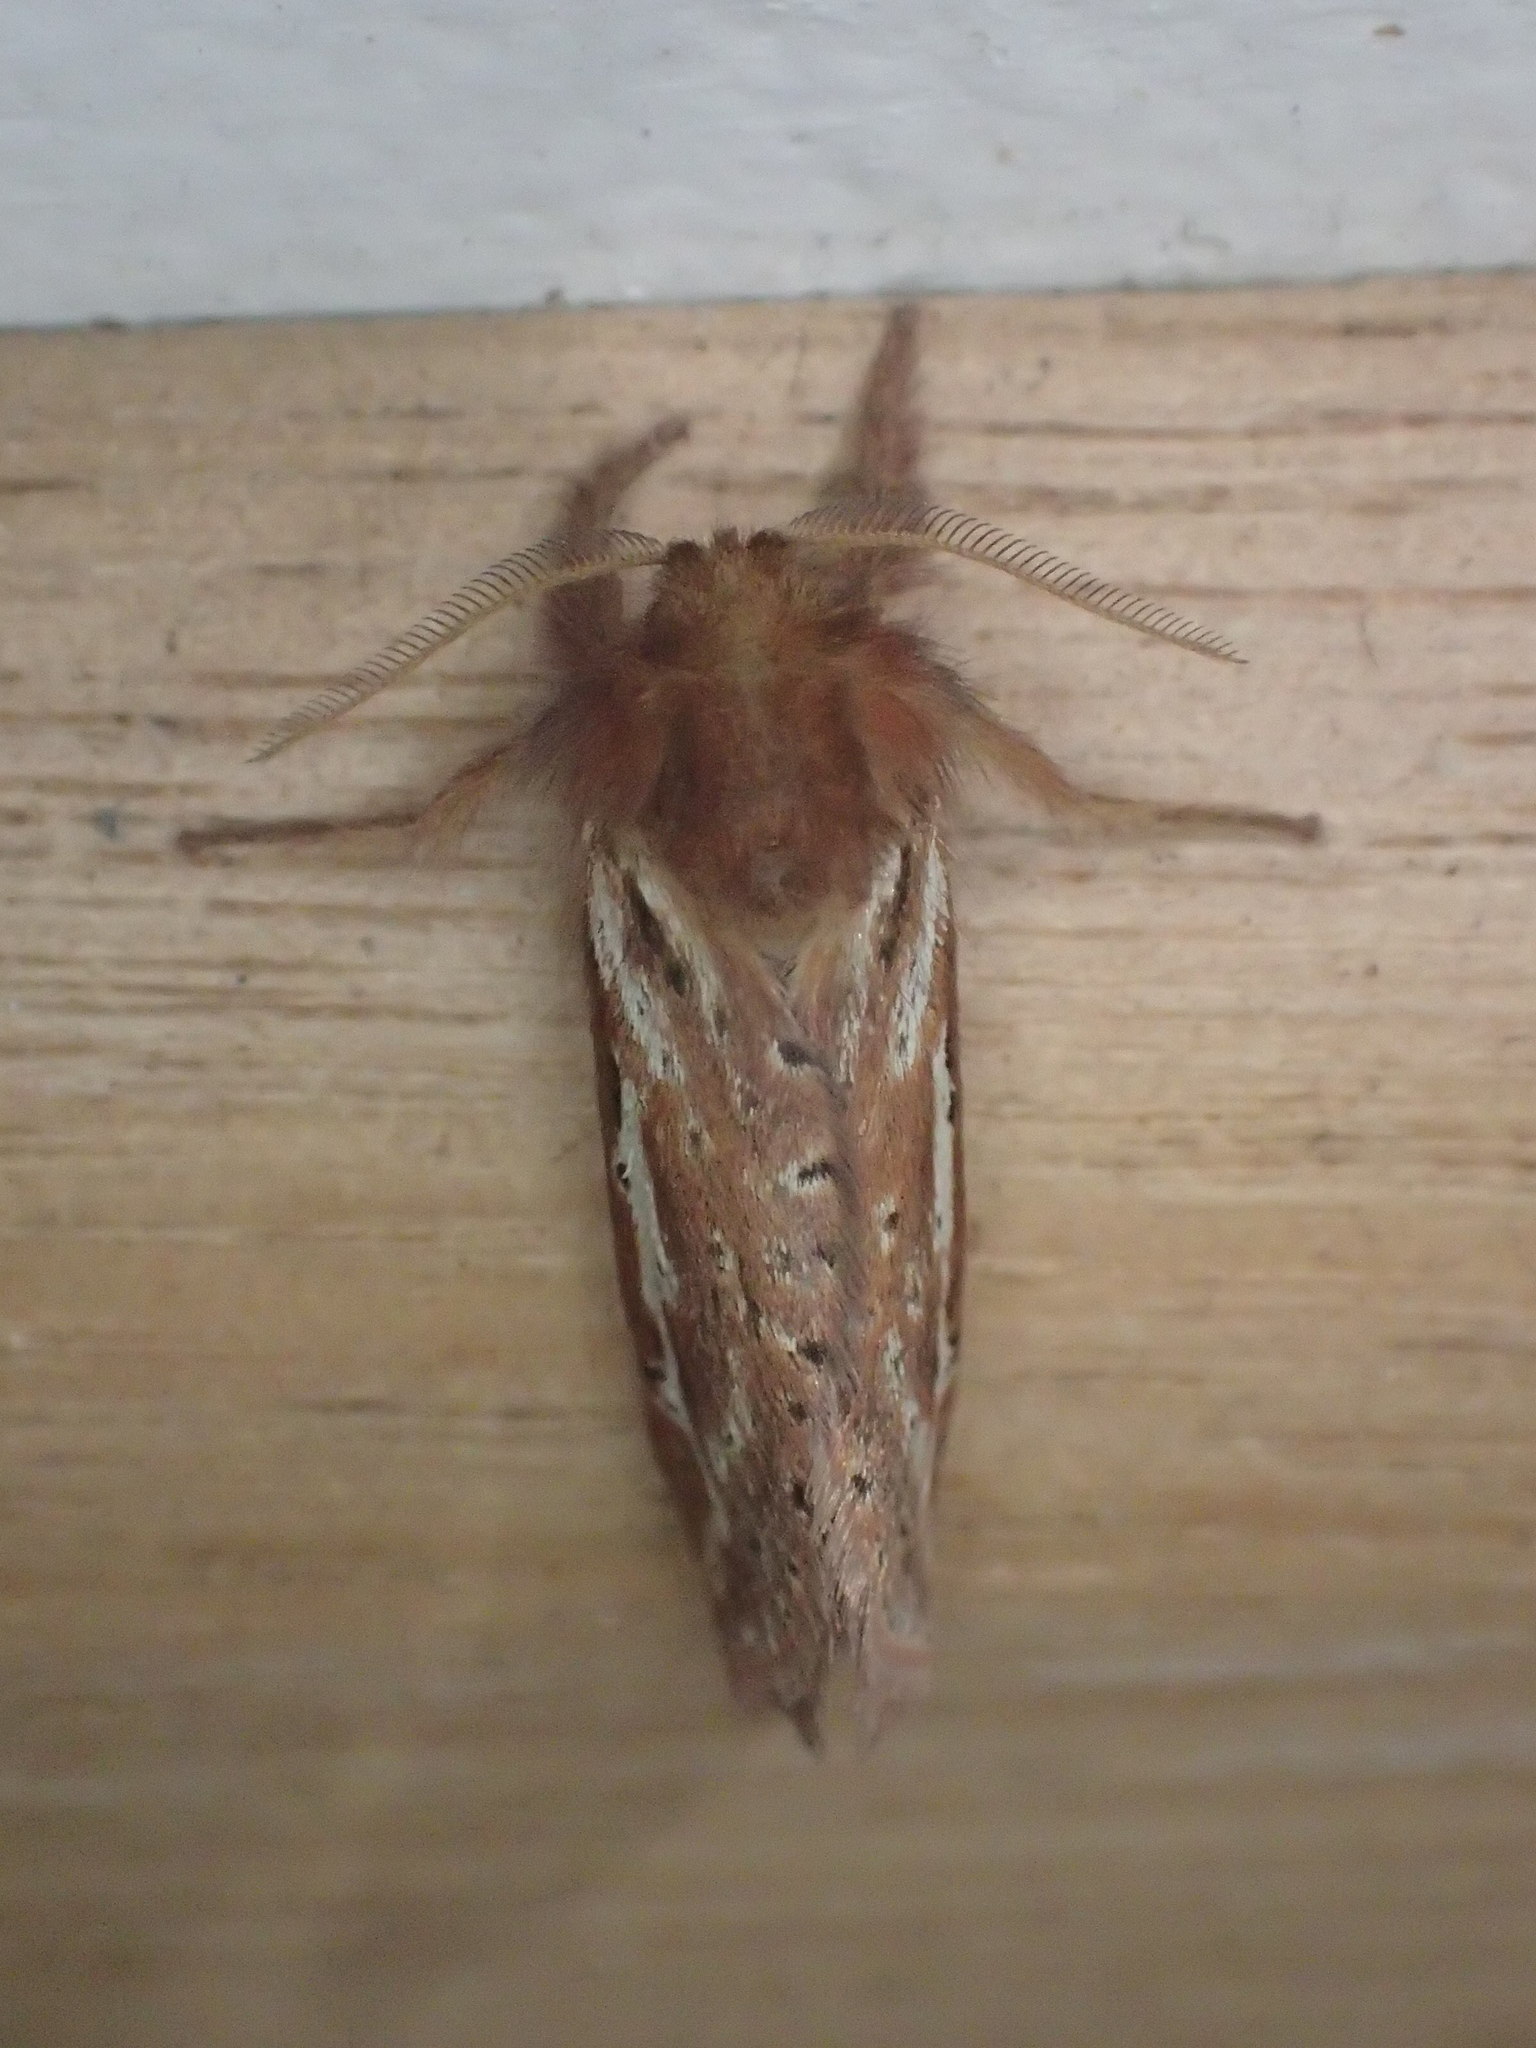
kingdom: Animalia
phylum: Arthropoda
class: Insecta
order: Lepidoptera
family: Hepialidae
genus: Fraus
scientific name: Fraus simulans
